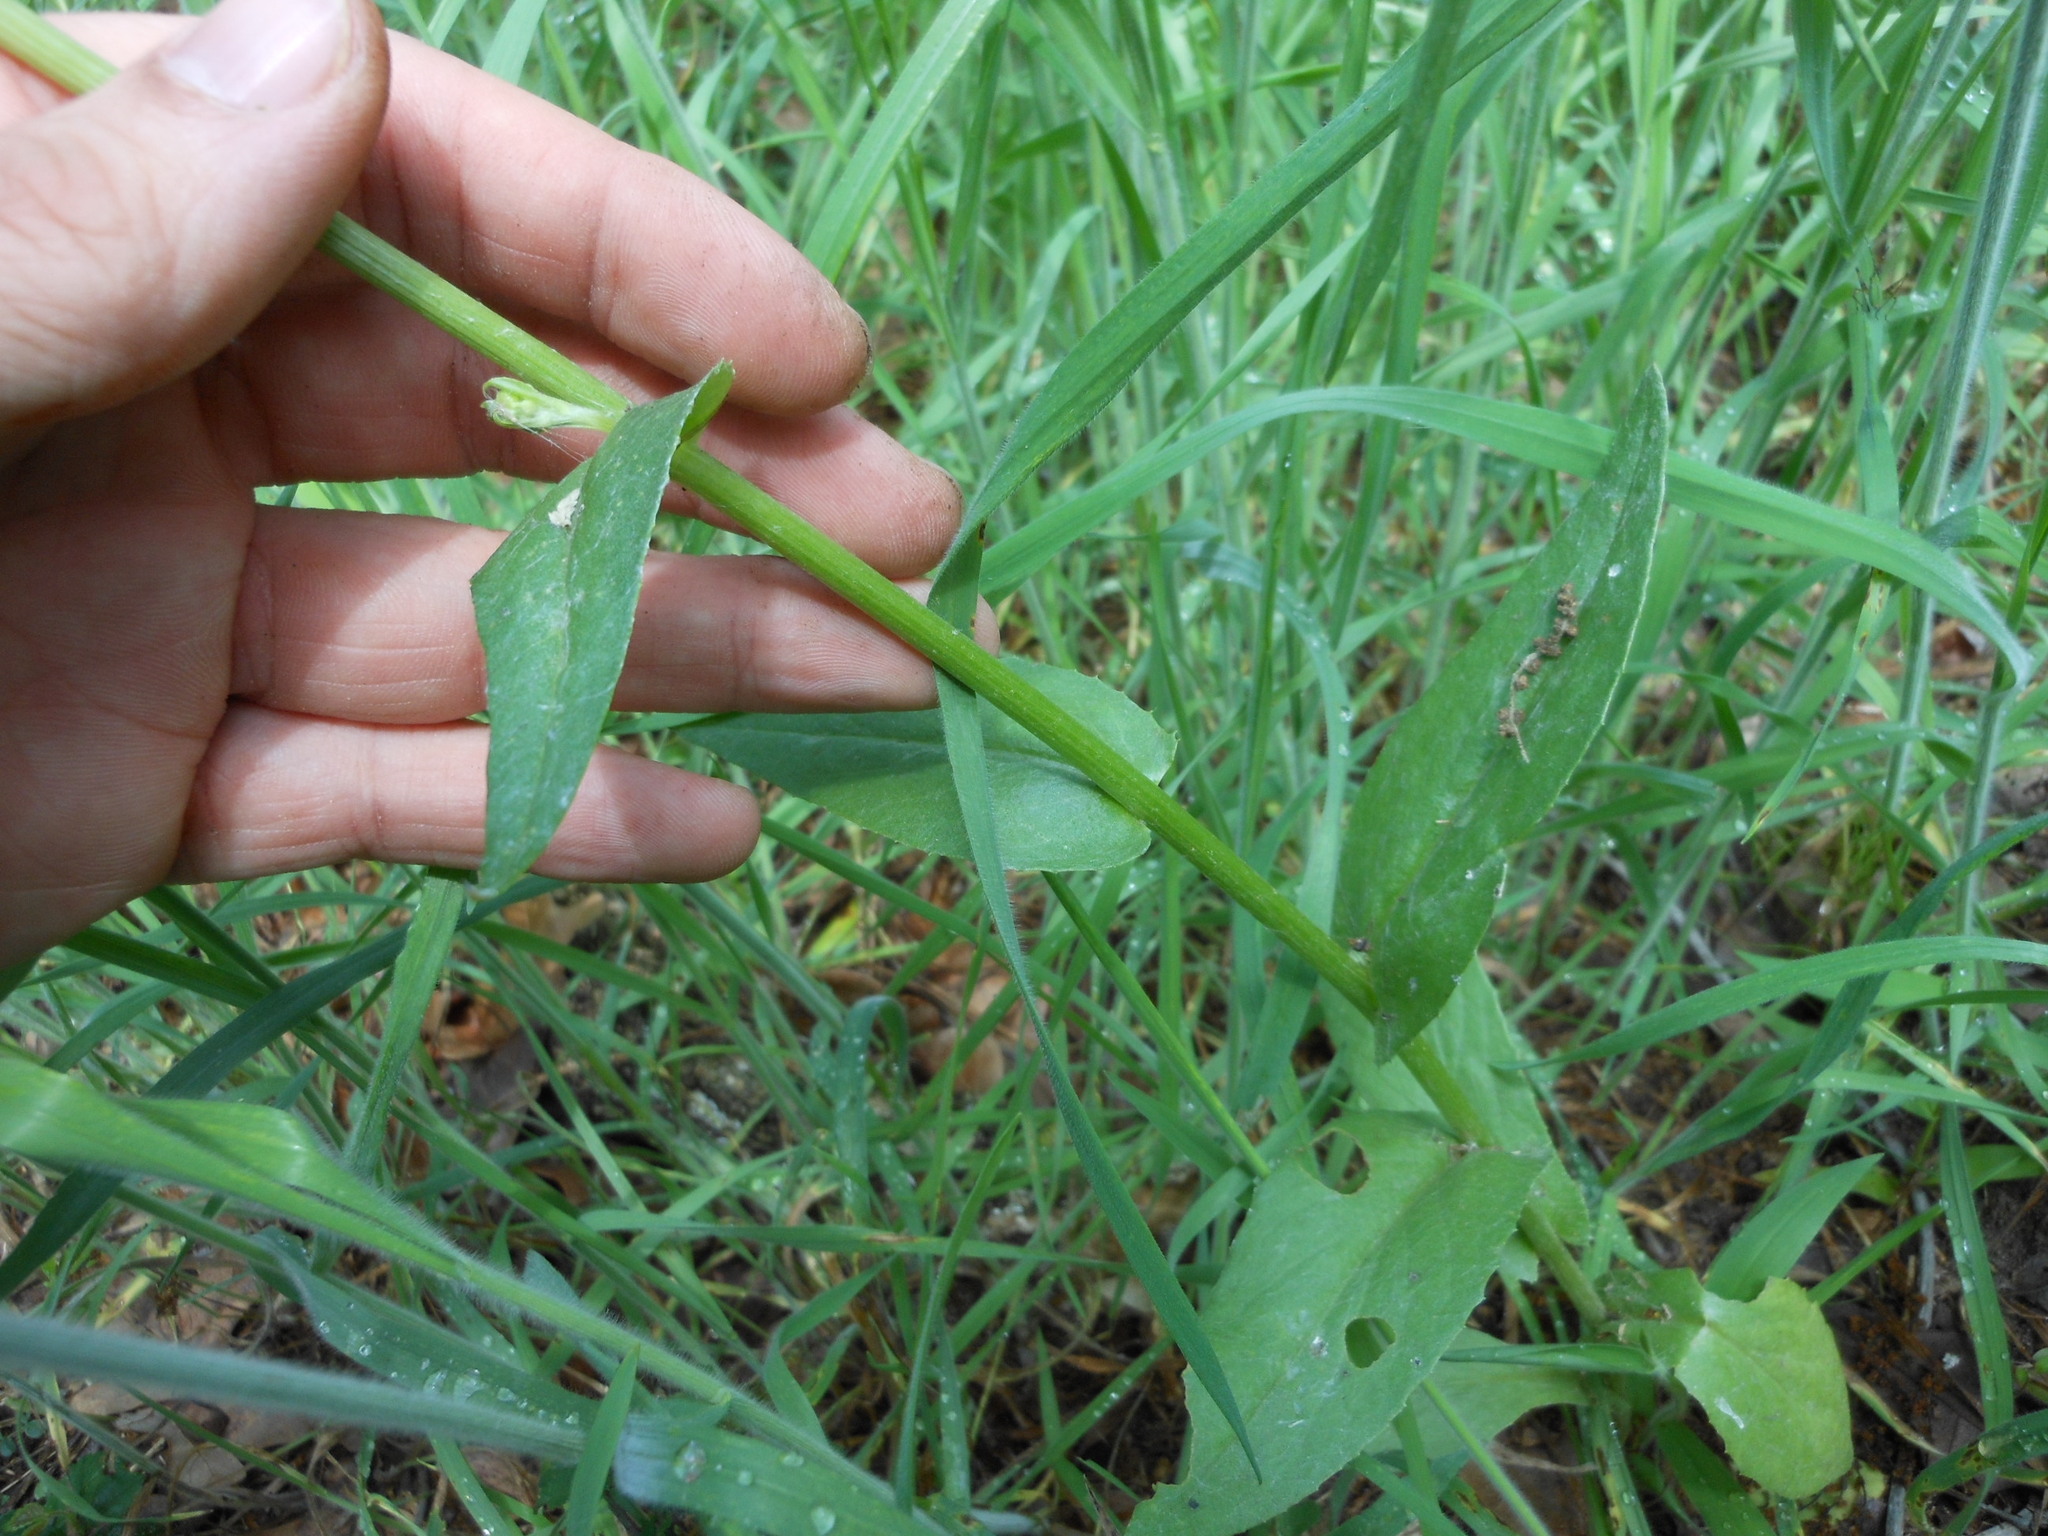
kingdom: Plantae
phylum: Tracheophyta
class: Magnoliopsida
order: Asterales
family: Asteraceae
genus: Senecio
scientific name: Senecio ampullaceus
